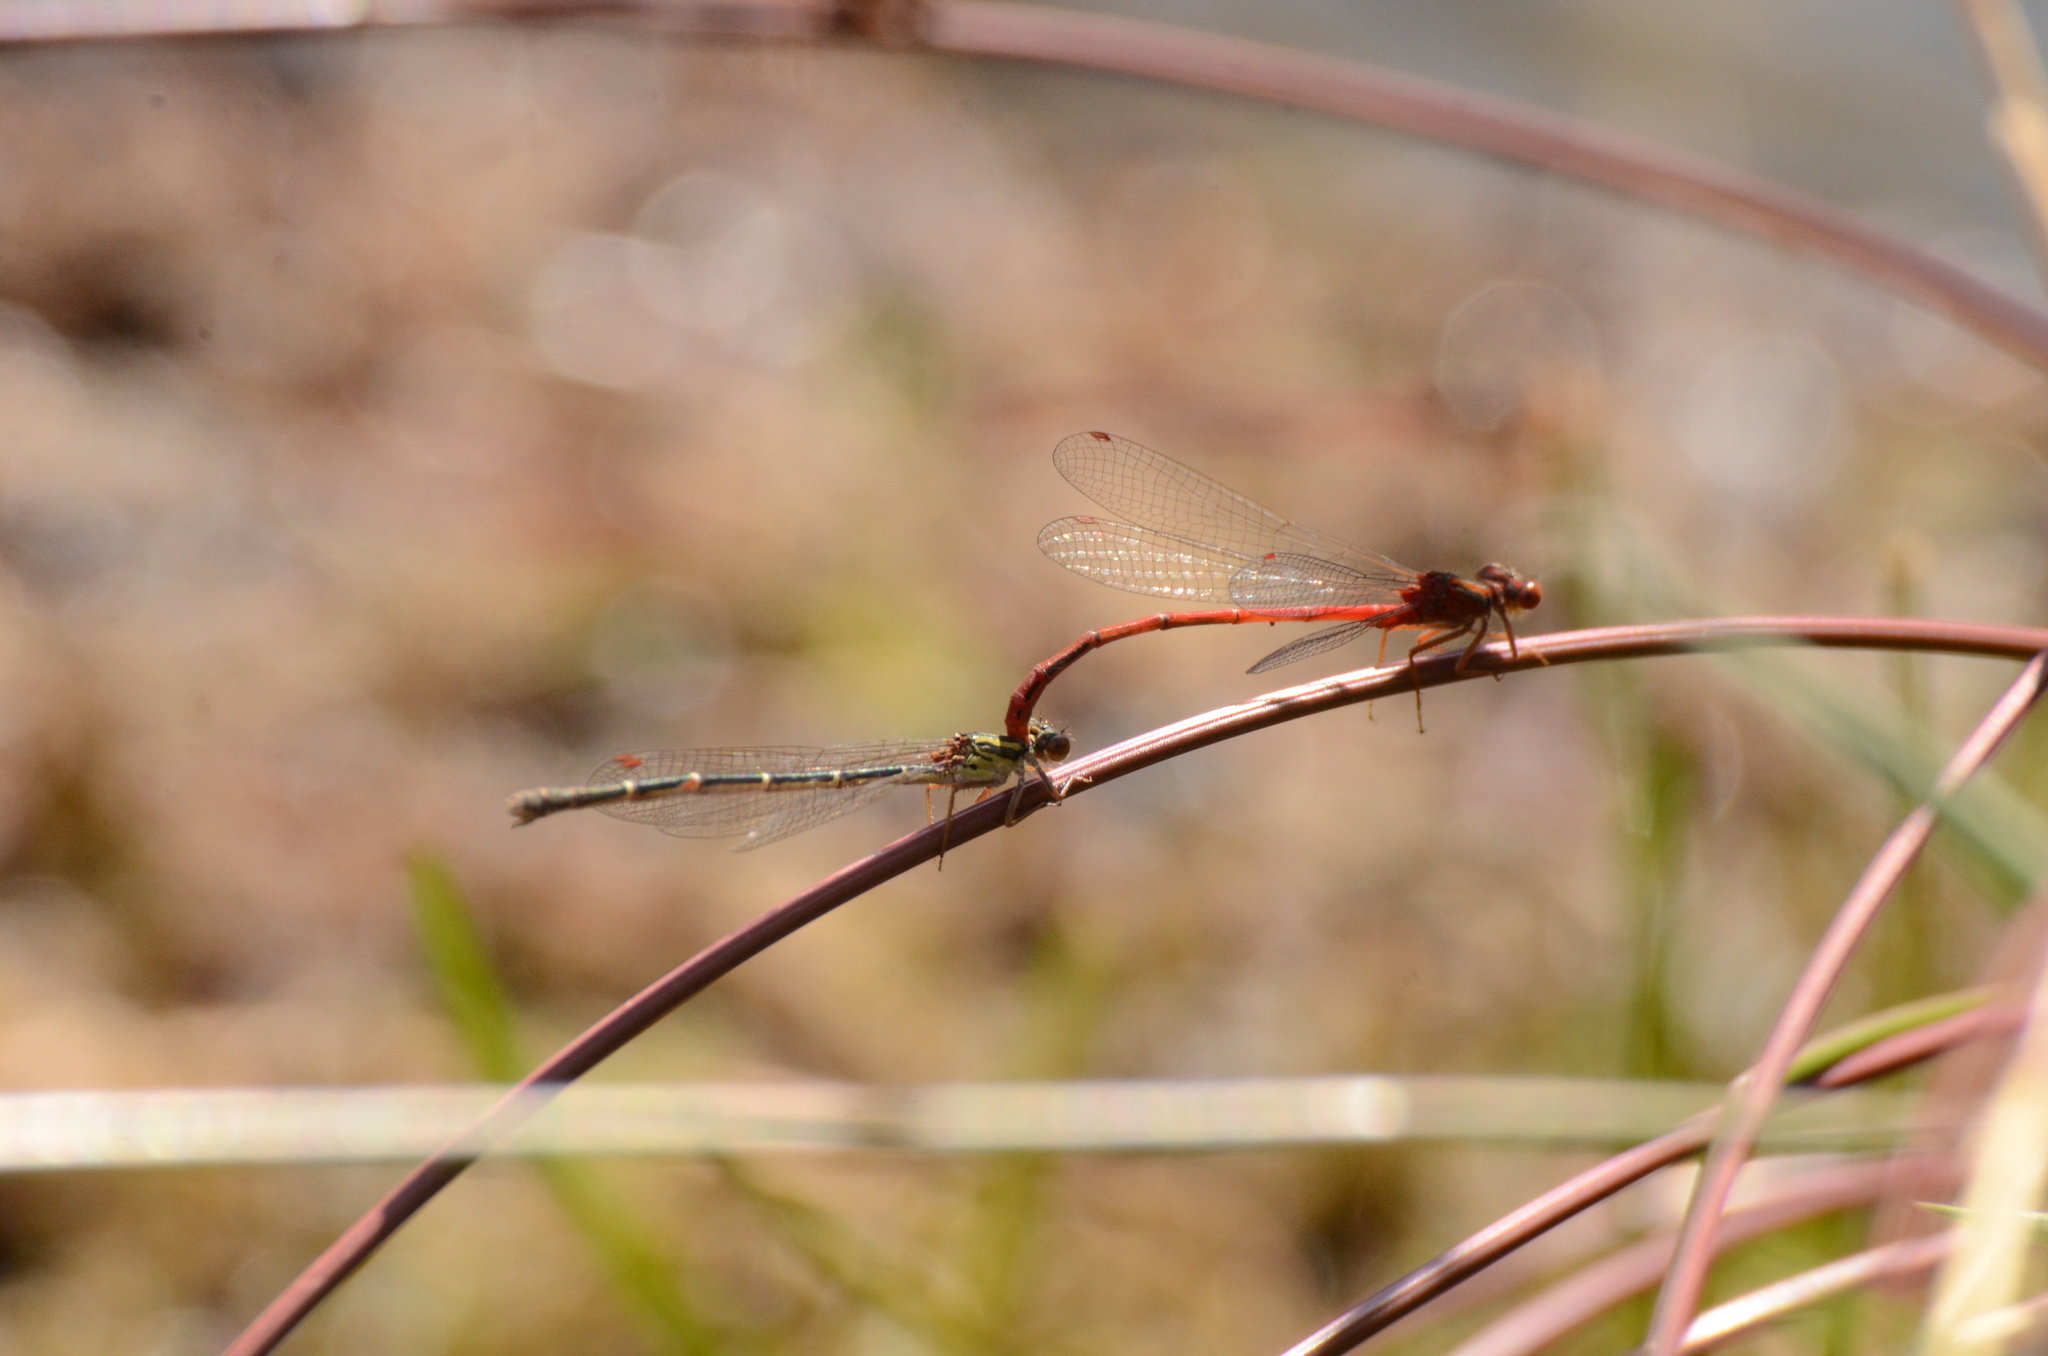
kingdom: Animalia
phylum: Arthropoda
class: Insecta
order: Odonata
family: Coenagrionidae
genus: Xanthocnemis
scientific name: Xanthocnemis zealandica
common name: Common redcoat damselfly
